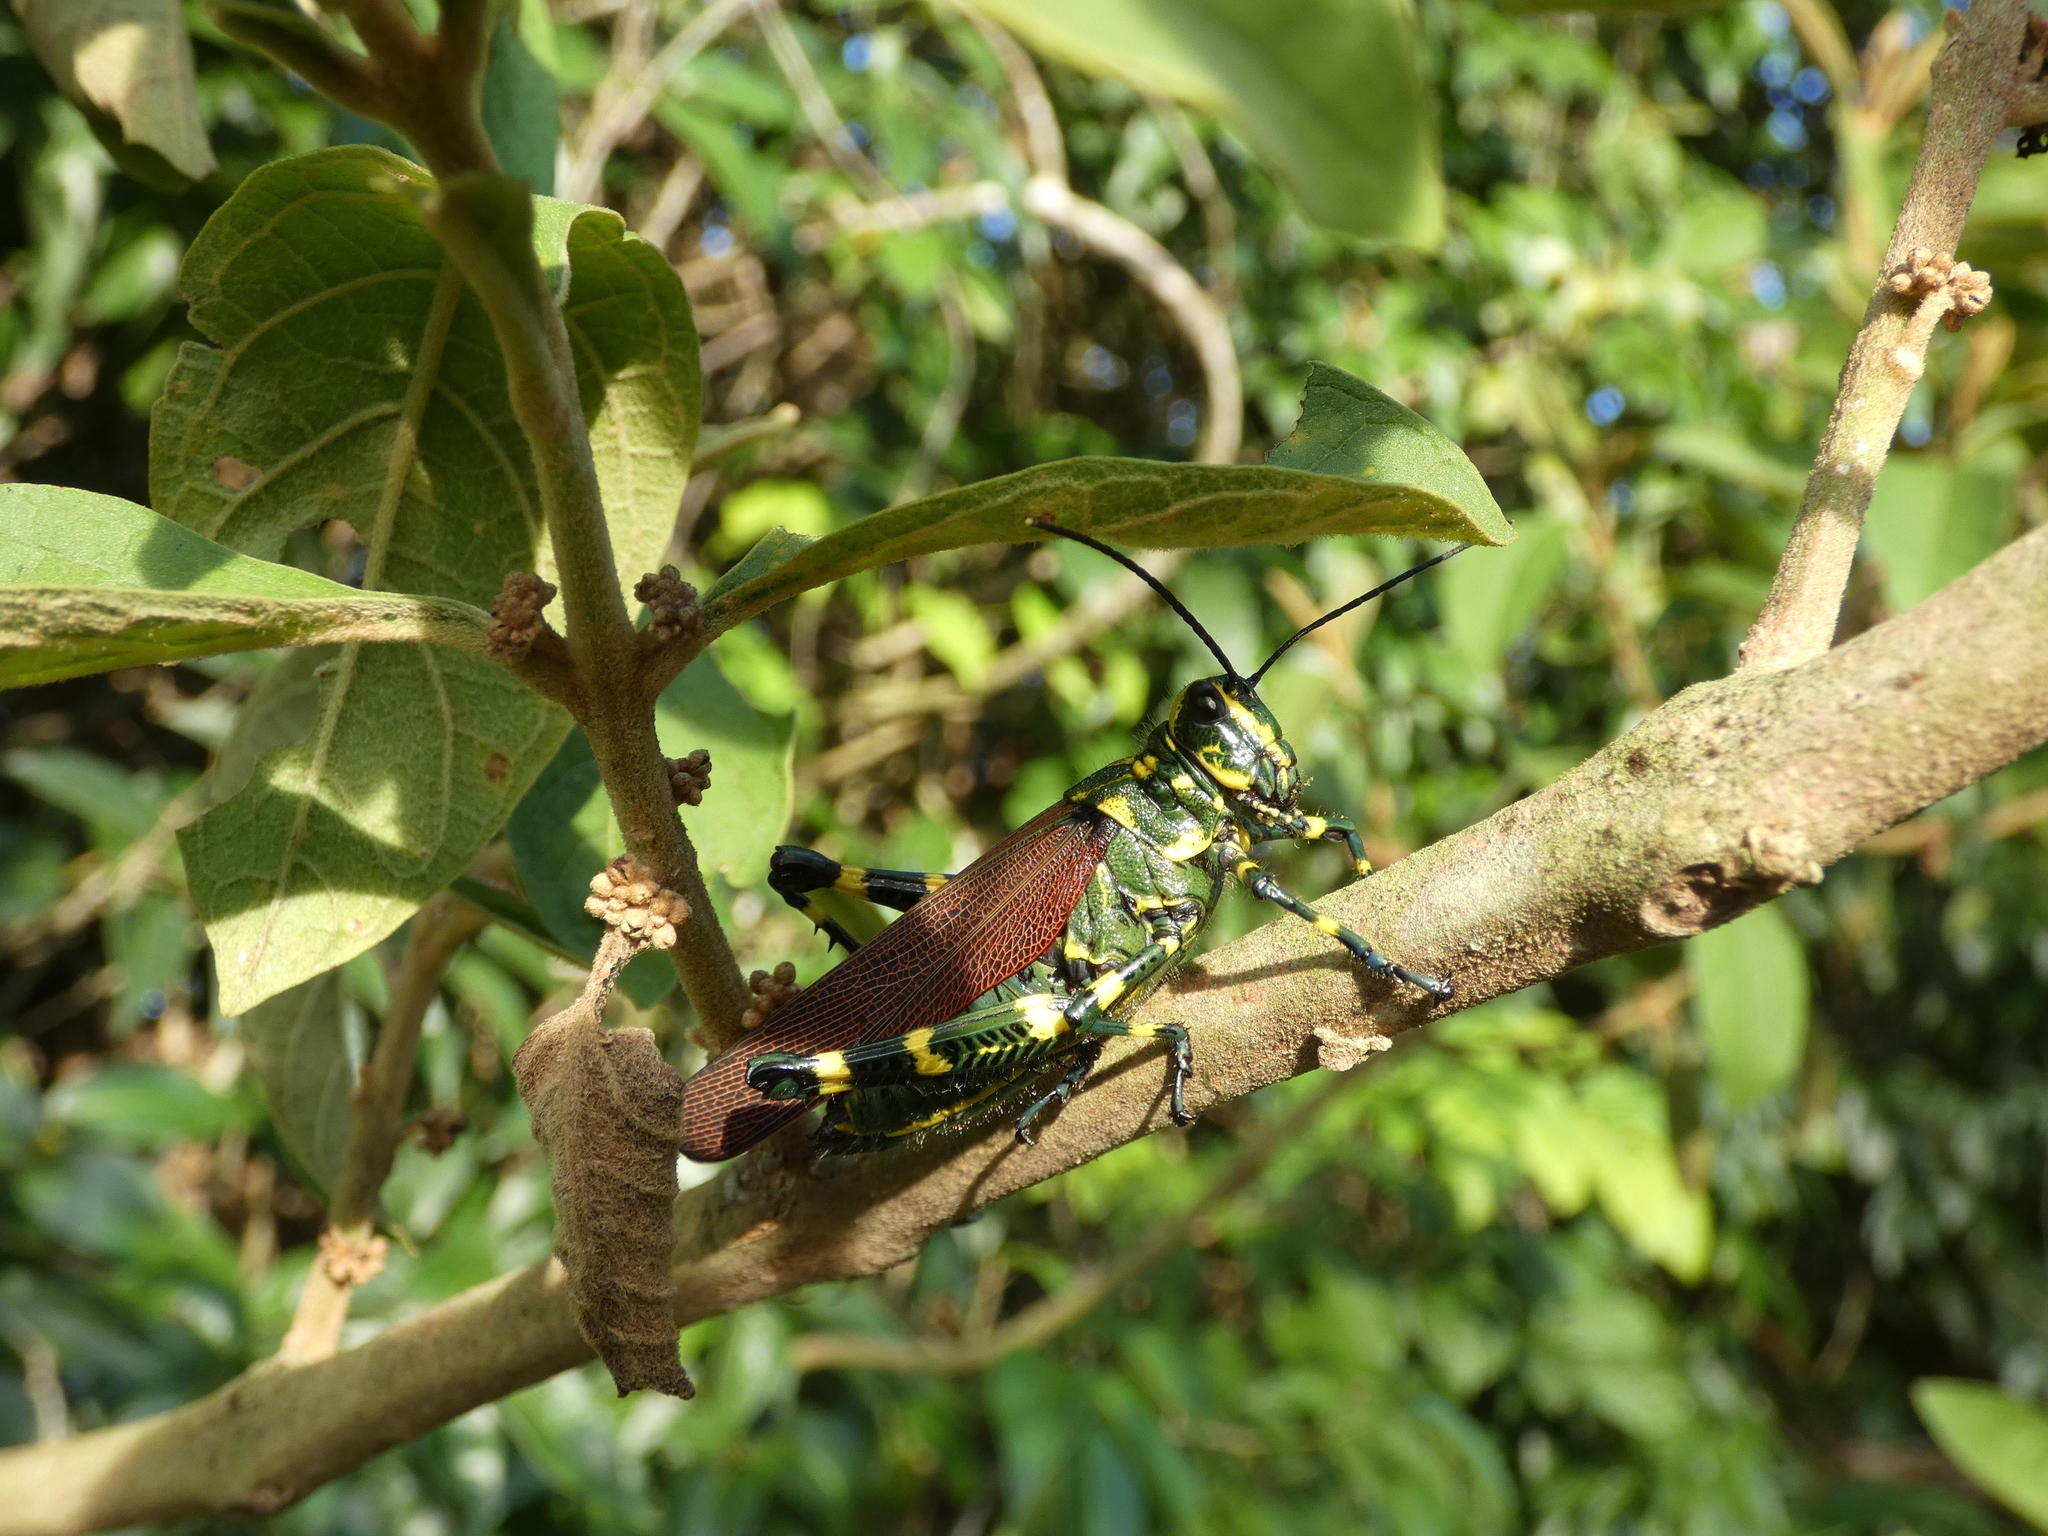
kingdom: Animalia
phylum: Arthropoda
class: Insecta
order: Orthoptera
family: Romaleidae
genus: Chromacris
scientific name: Chromacris speciosa
